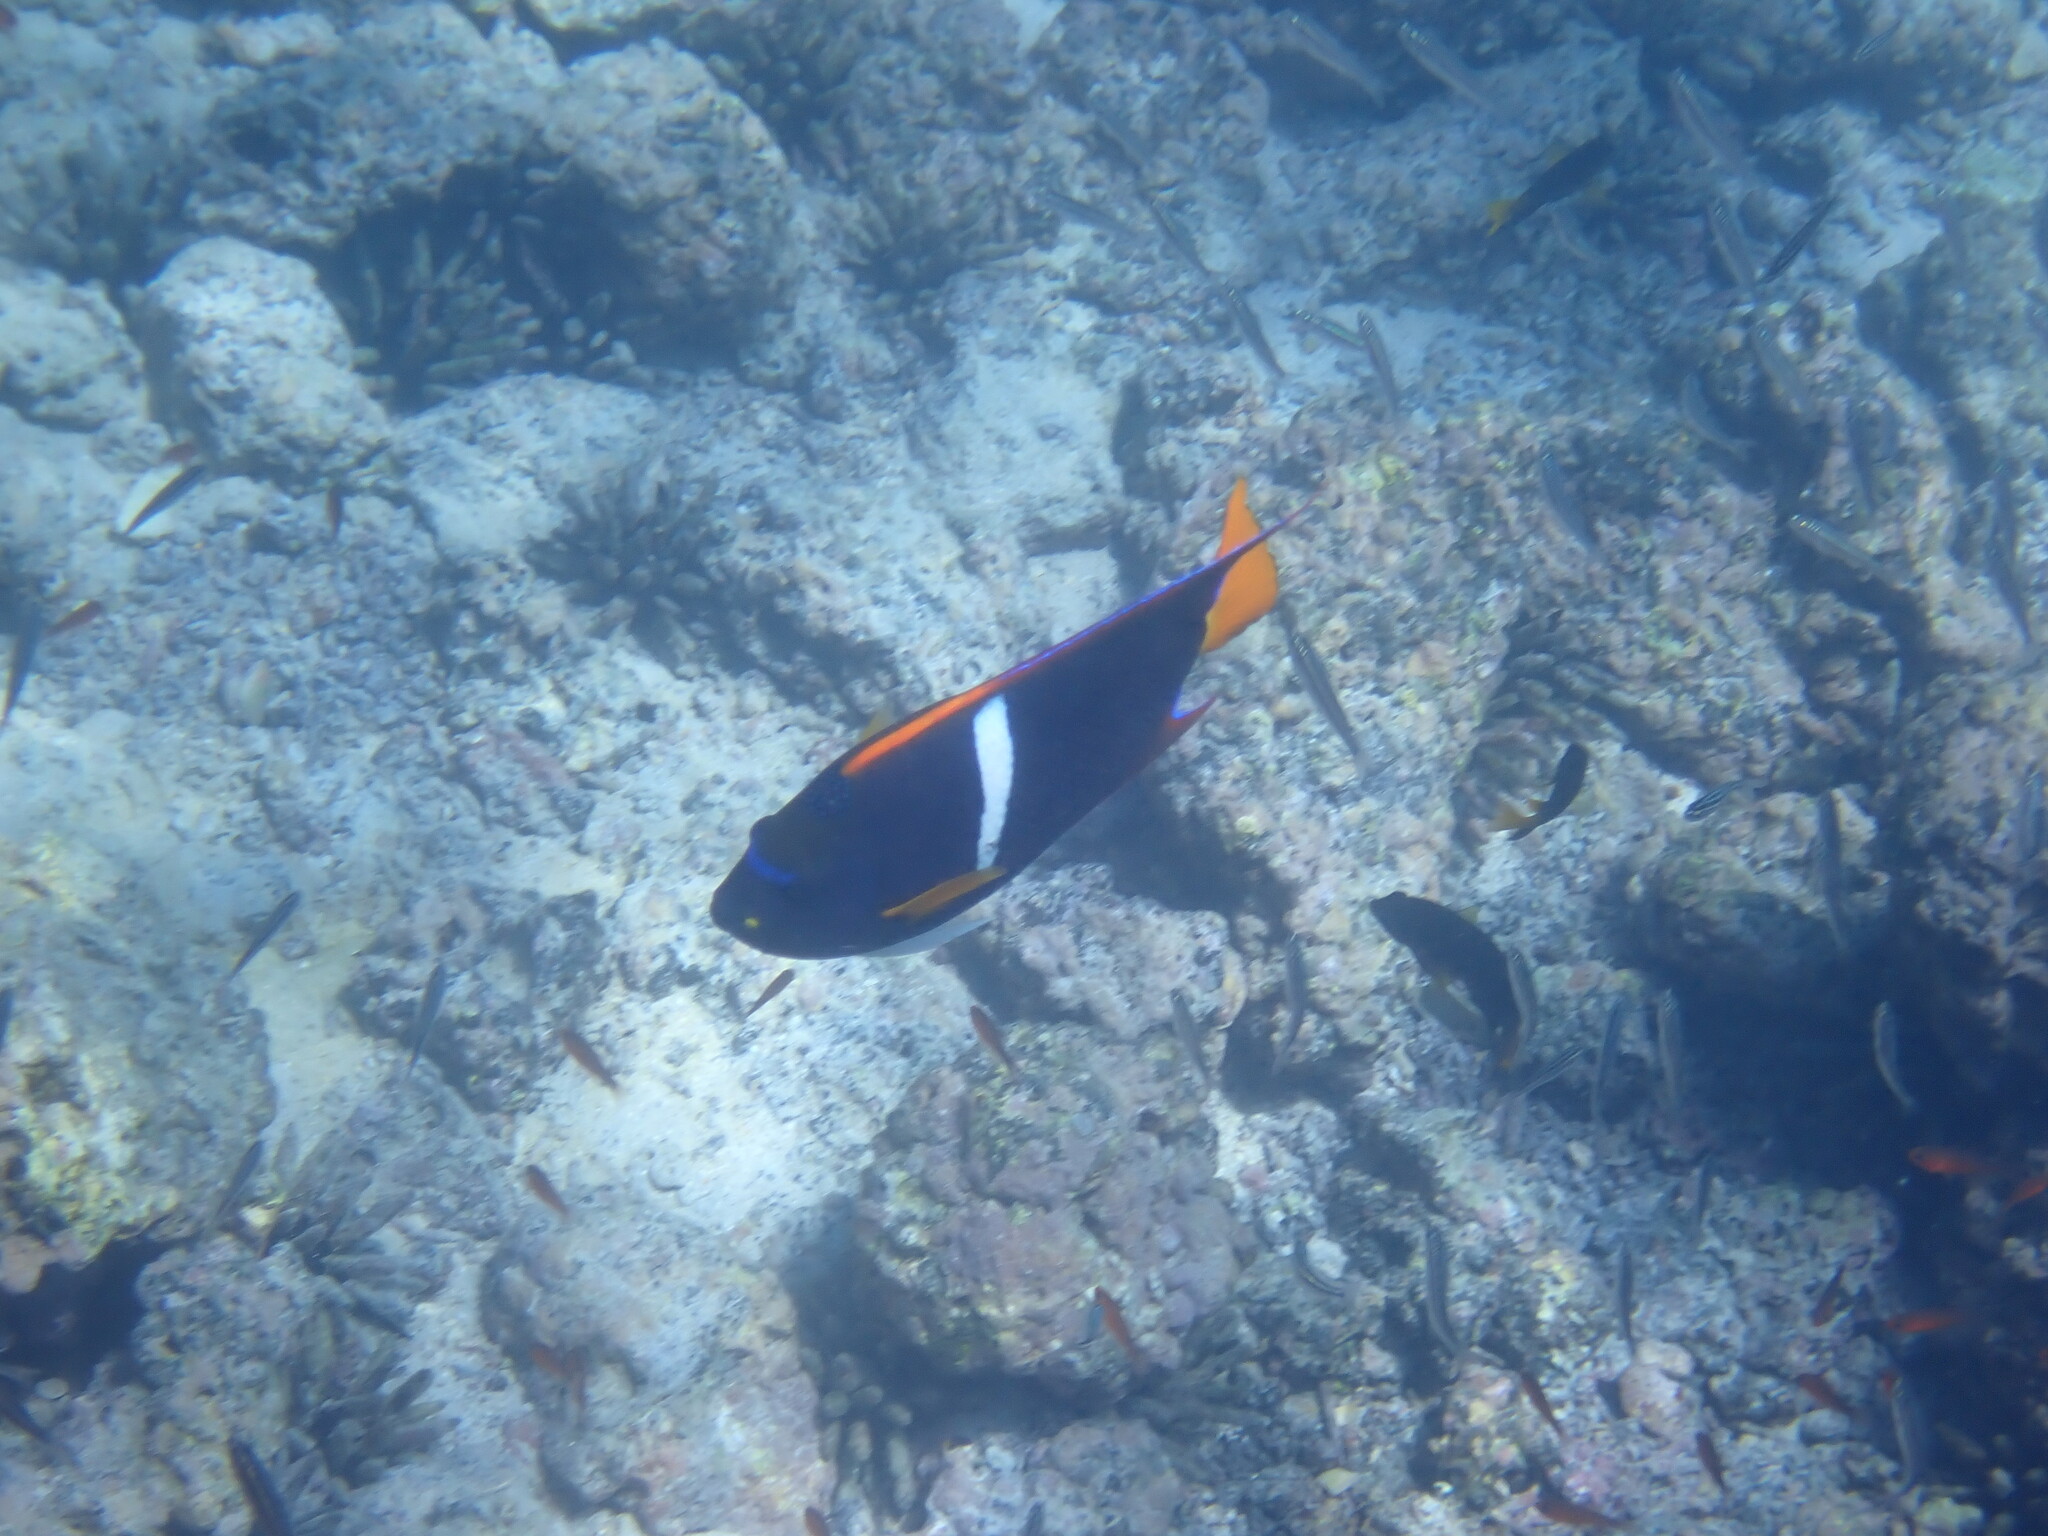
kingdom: Animalia
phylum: Chordata
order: Perciformes
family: Pomacanthidae
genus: Holacanthus
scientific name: Holacanthus passer
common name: King angelfish
